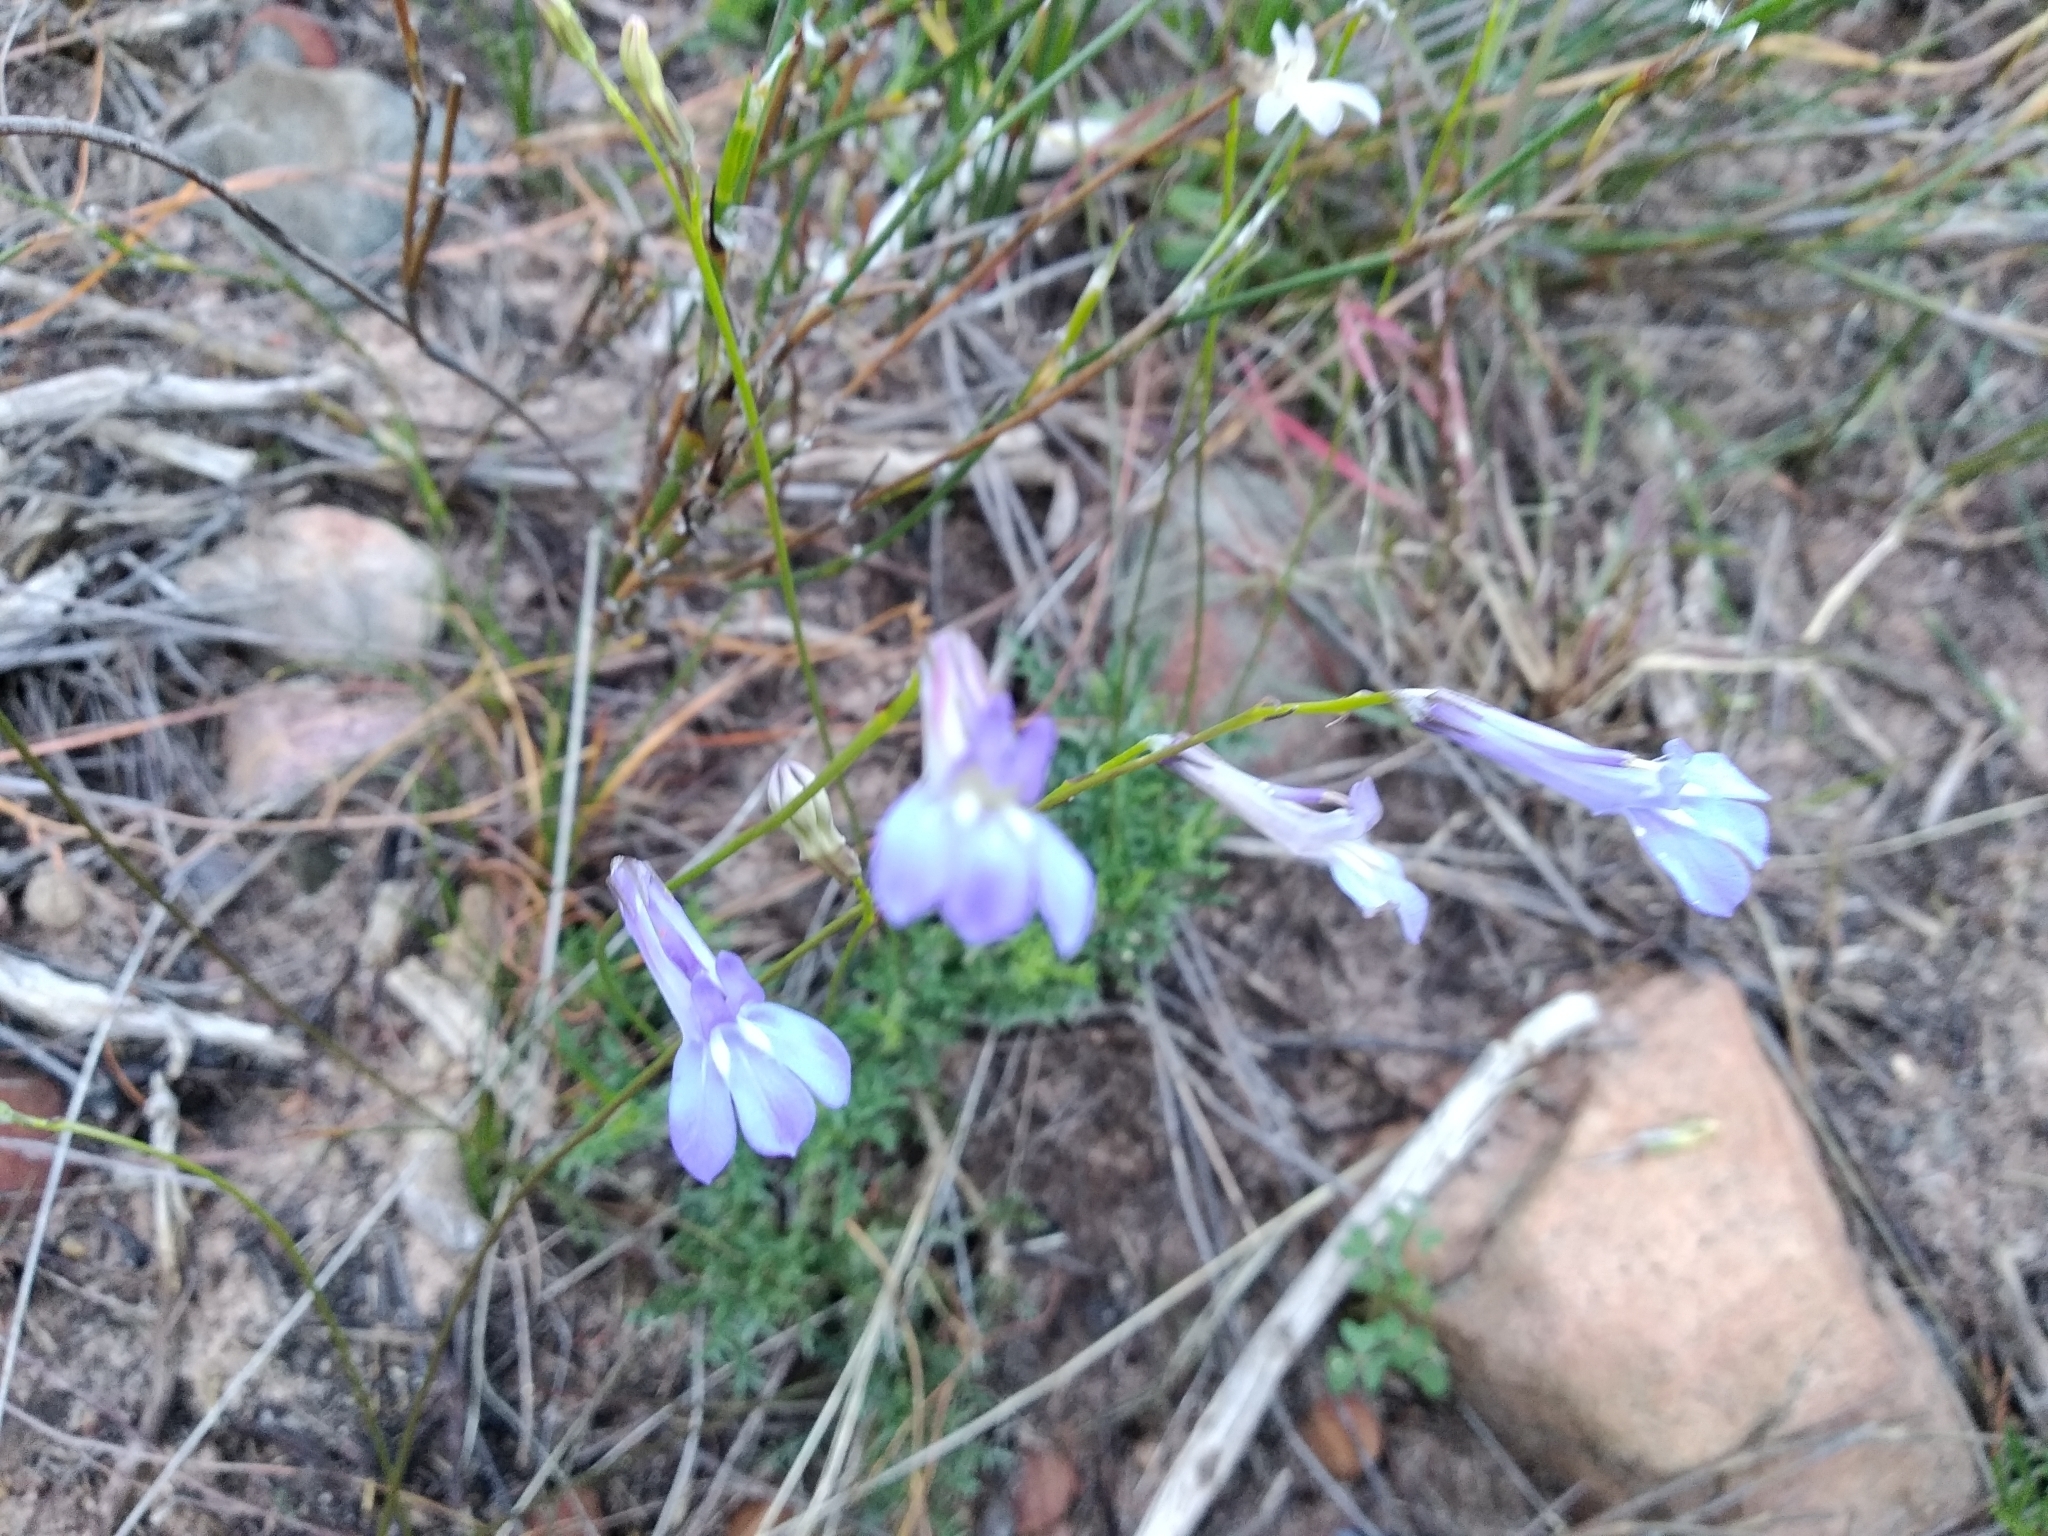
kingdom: Plantae
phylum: Tracheophyta
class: Magnoliopsida
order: Asterales
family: Campanulaceae
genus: Lobelia
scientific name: Lobelia coronopifolia
